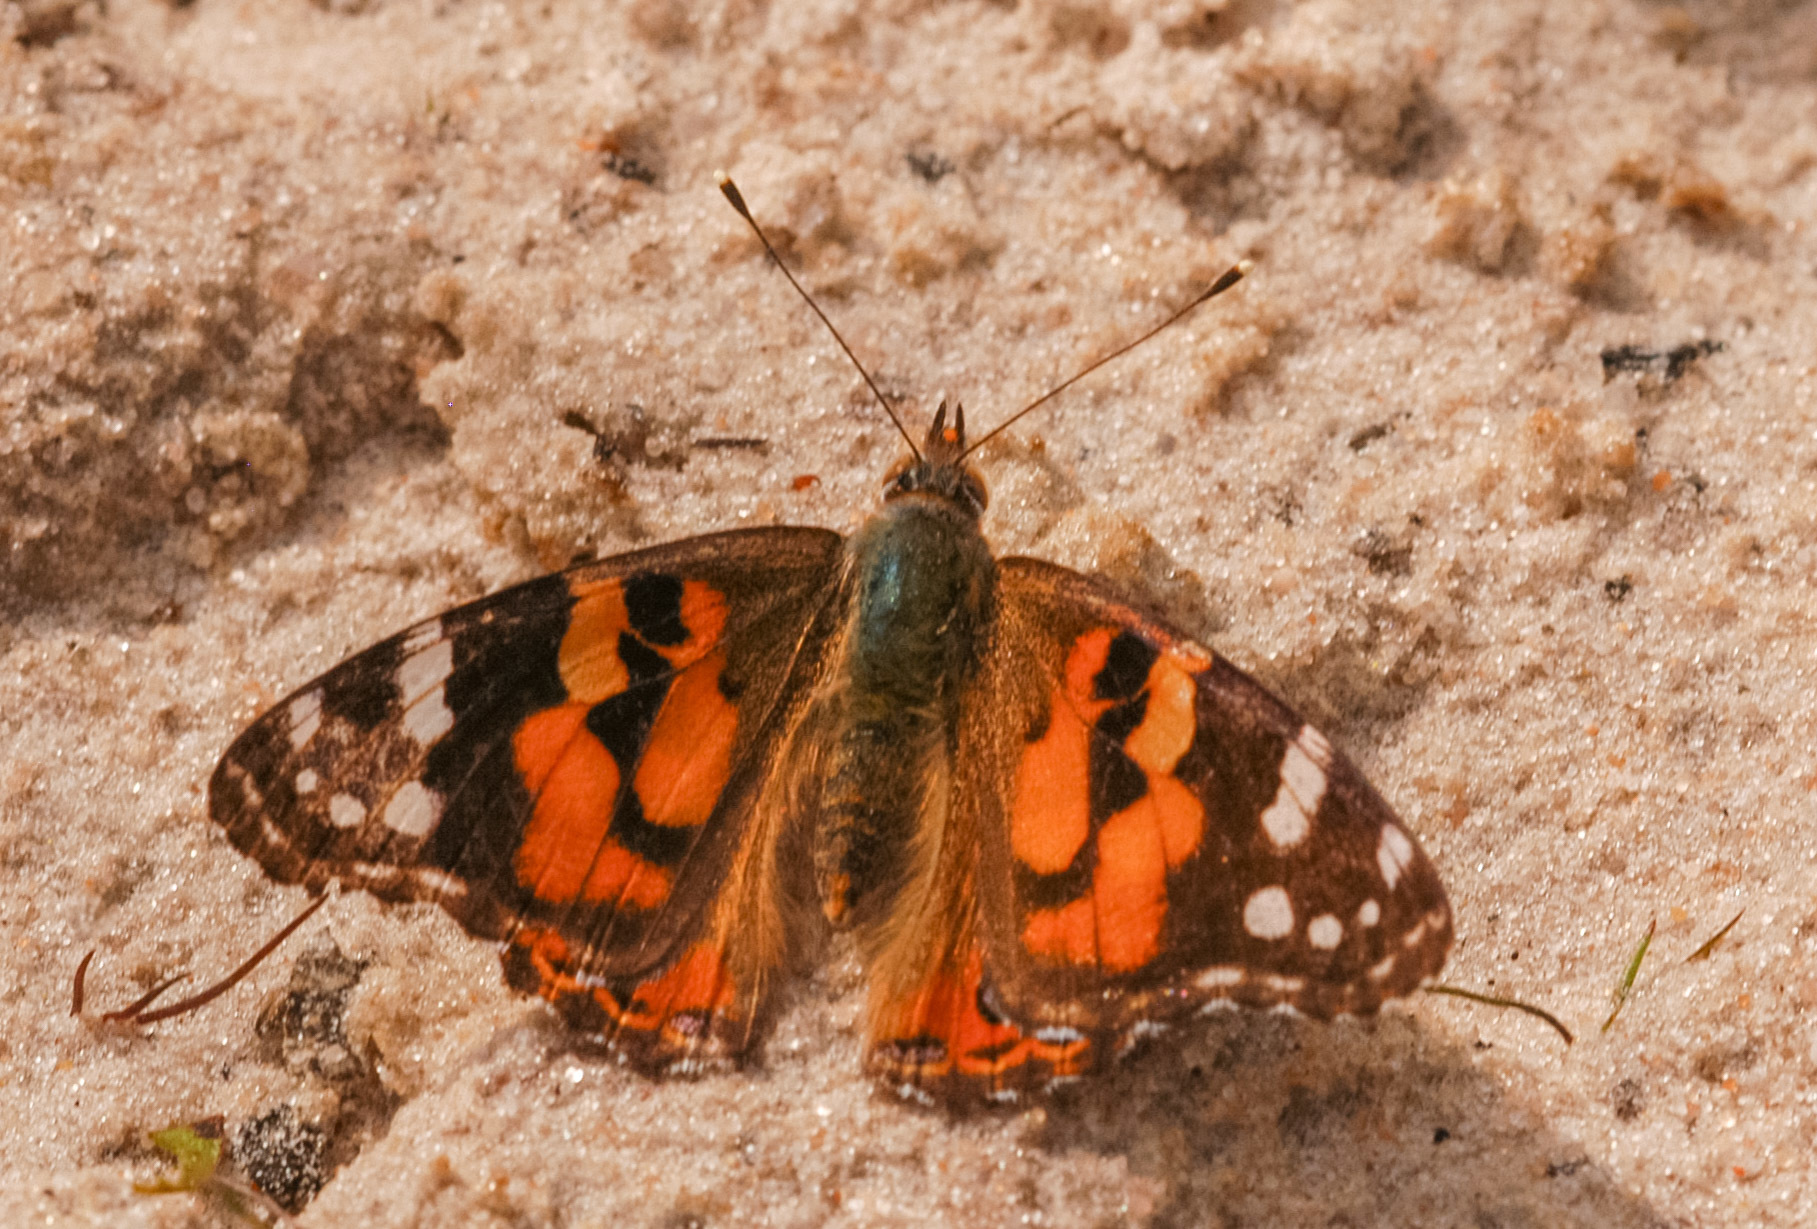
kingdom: Animalia
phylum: Arthropoda
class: Insecta
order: Lepidoptera
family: Nymphalidae
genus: Vanessa
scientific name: Vanessa kershawi
